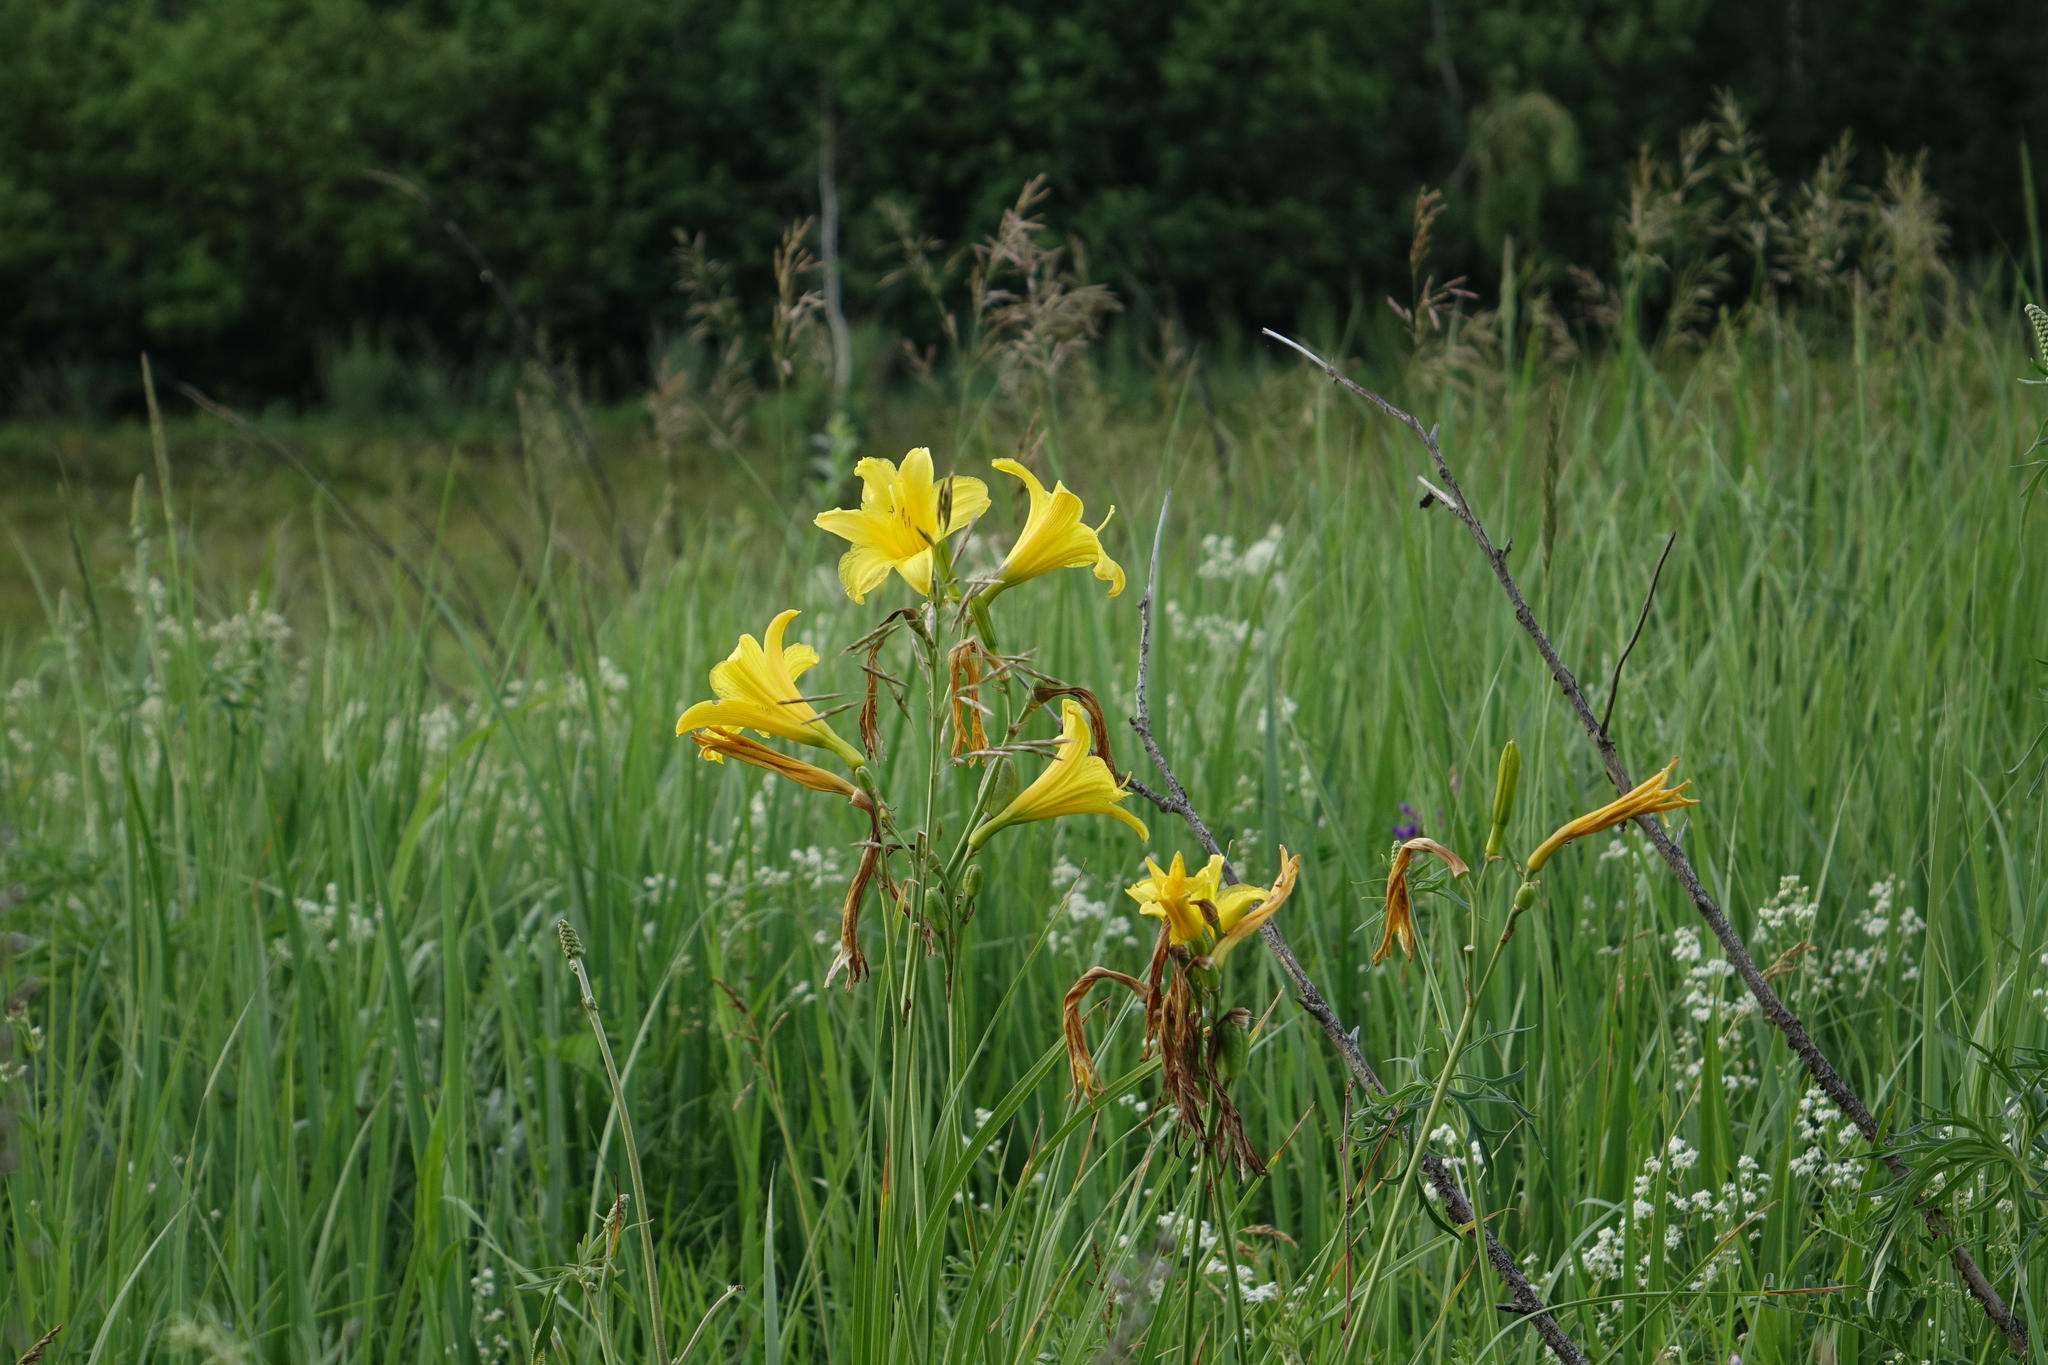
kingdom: Plantae
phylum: Tracheophyta
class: Liliopsida
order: Asparagales
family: Asphodelaceae
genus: Hemerocallis
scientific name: Hemerocallis minor
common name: Small daylily
